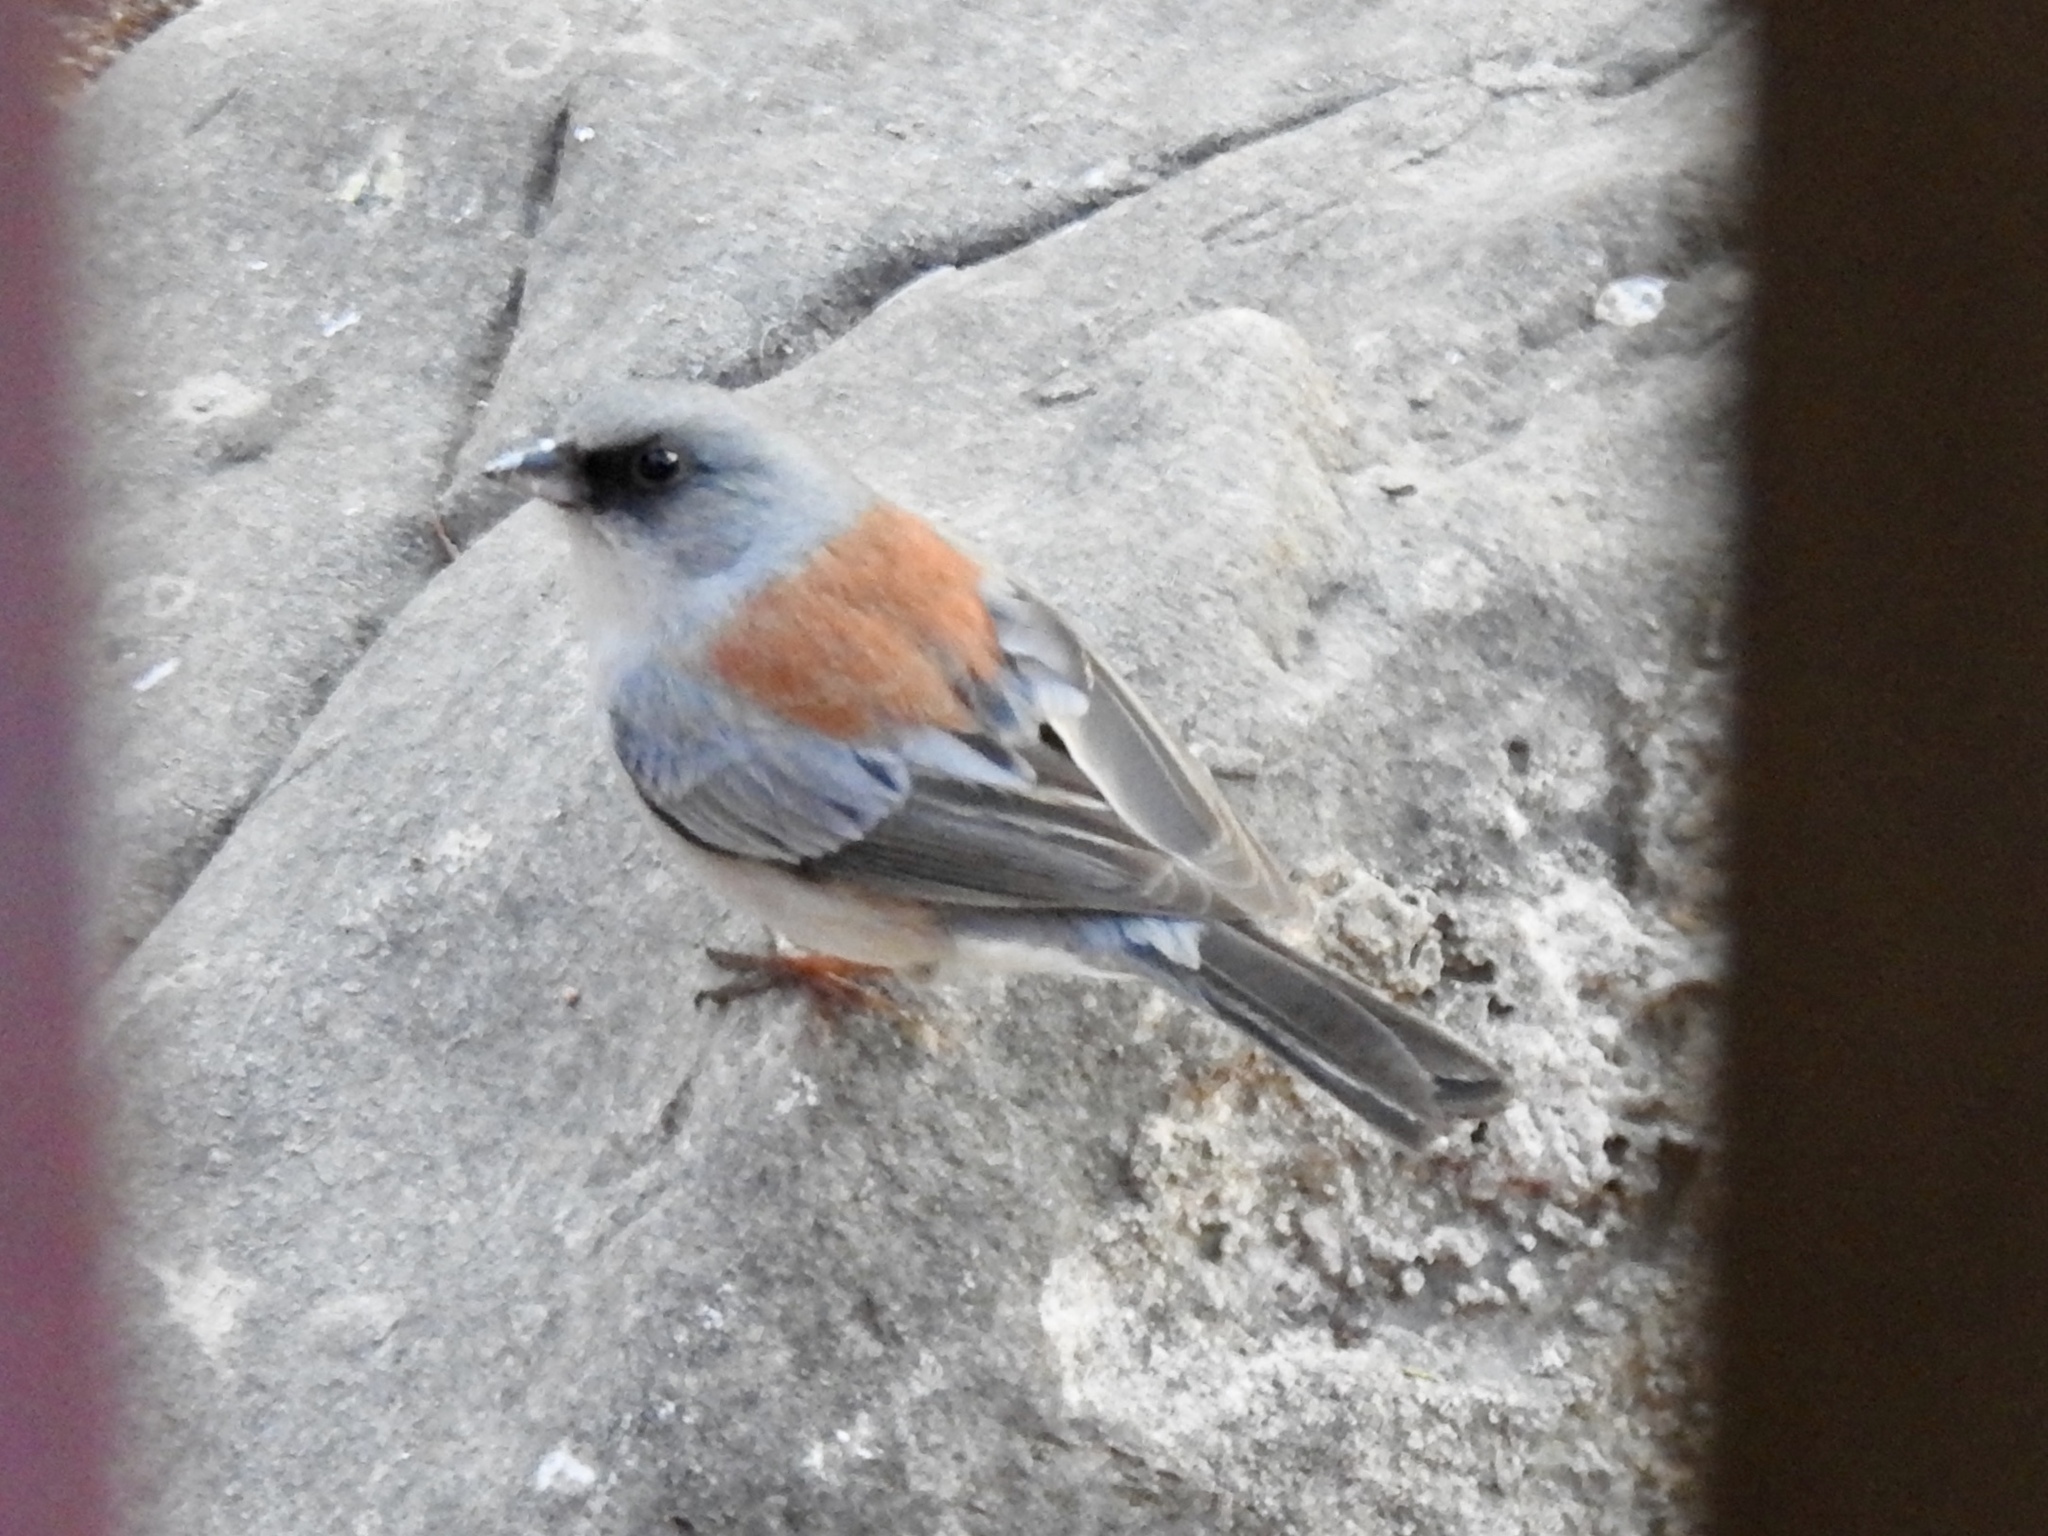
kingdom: Animalia
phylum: Chordata
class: Aves
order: Passeriformes
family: Passerellidae
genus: Junco
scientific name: Junco hyemalis
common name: Dark-eyed junco
